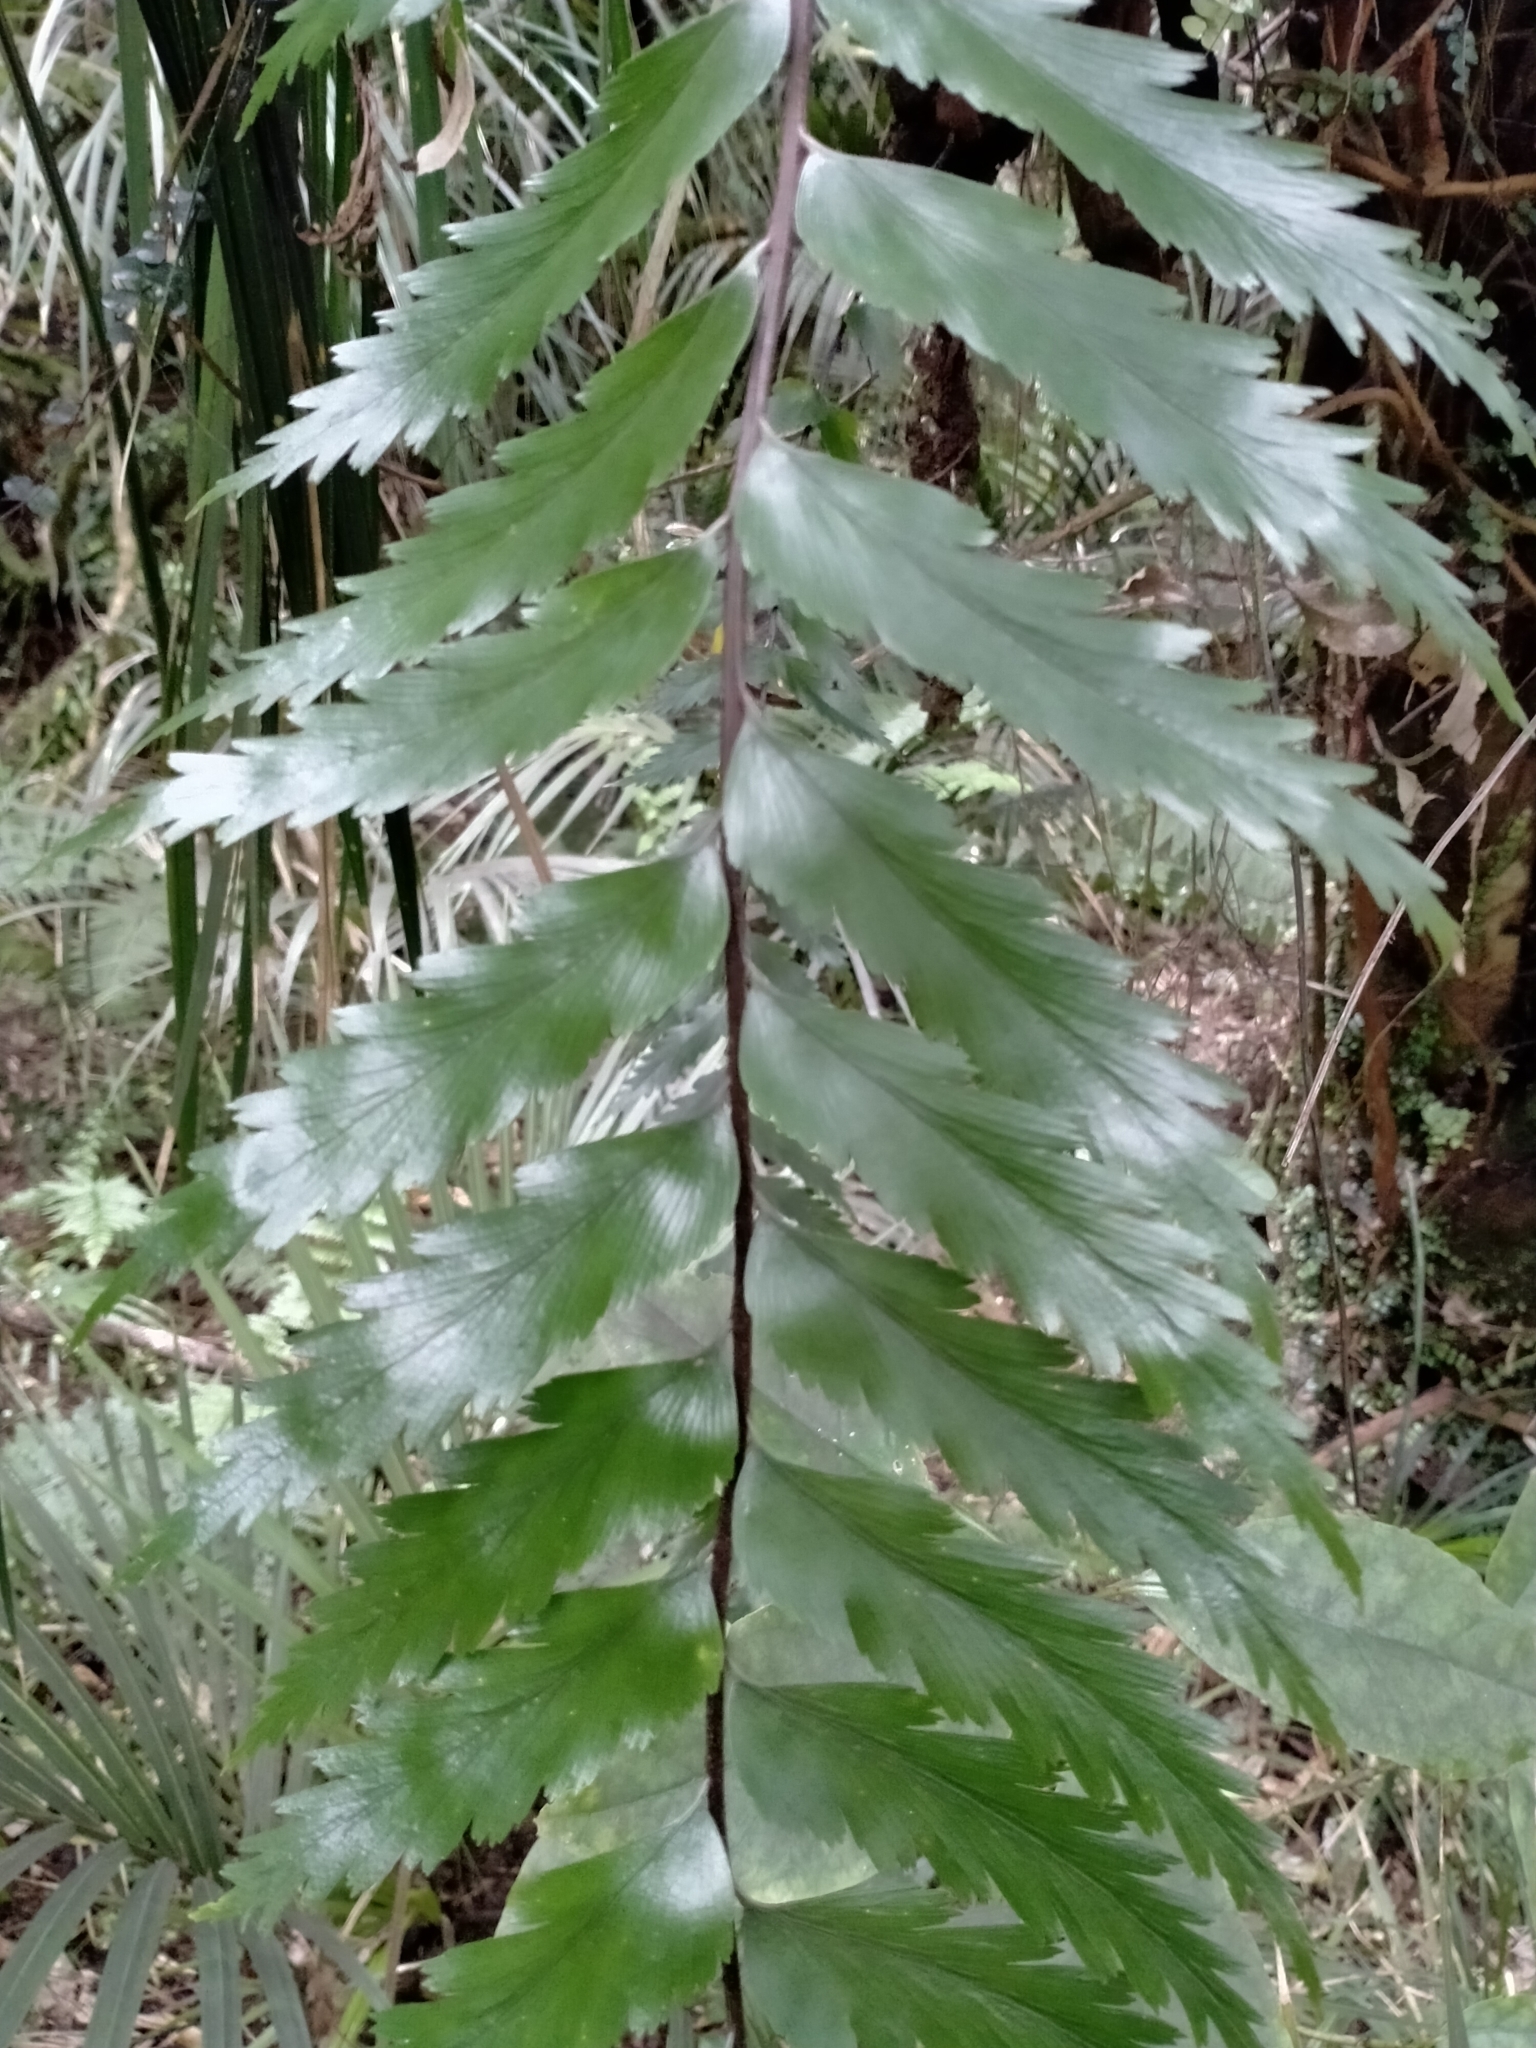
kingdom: Plantae
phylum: Tracheophyta
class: Polypodiopsida
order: Polypodiales
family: Aspleniaceae
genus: Asplenium
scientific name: Asplenium polyodon
